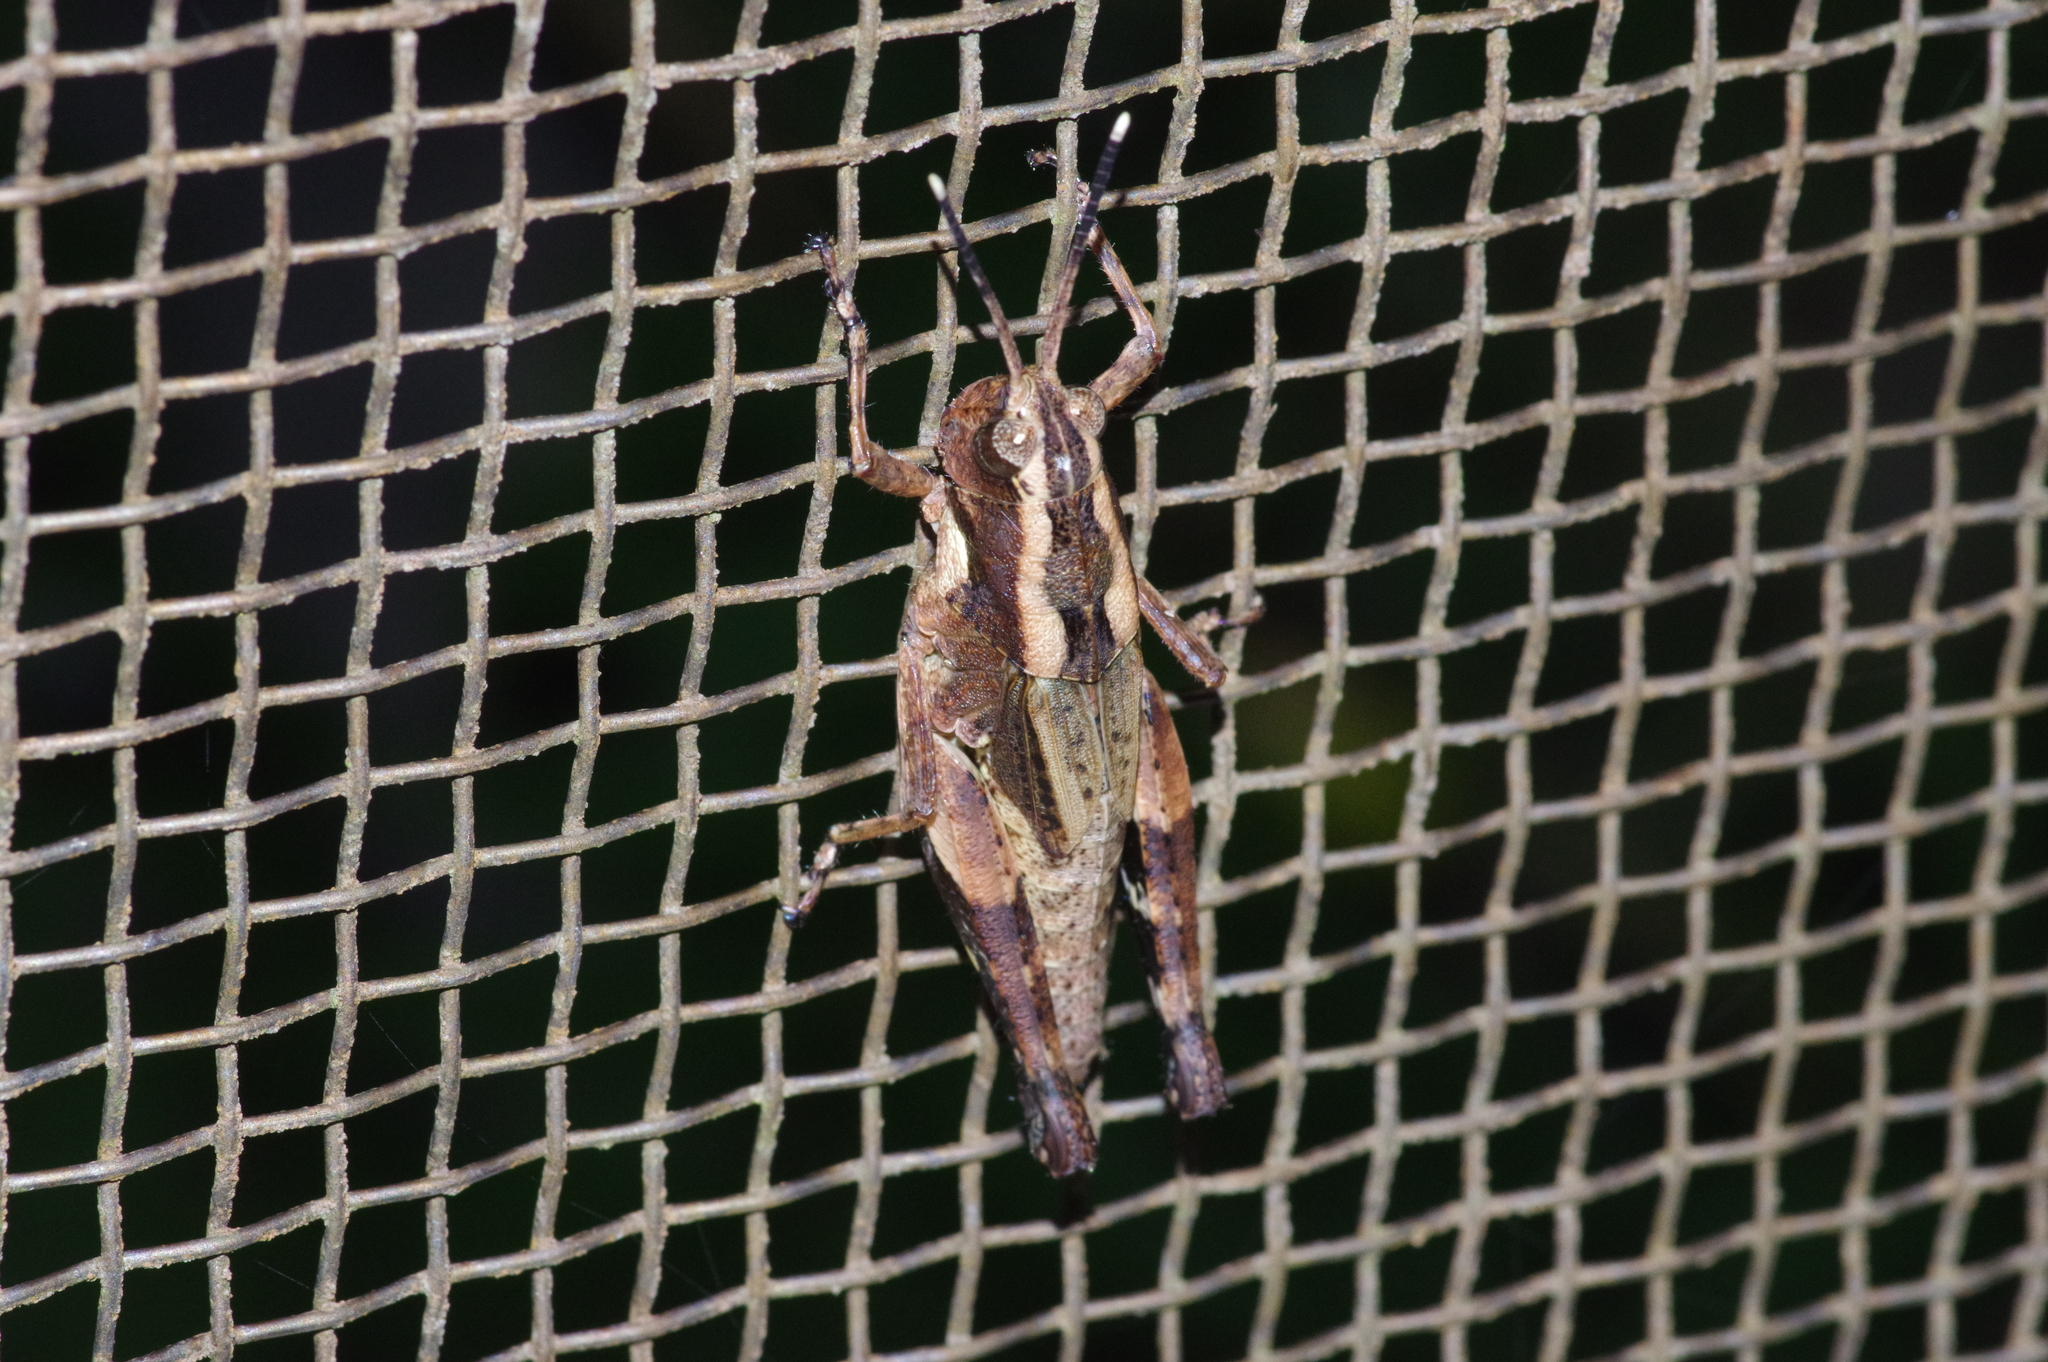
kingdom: Animalia
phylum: Arthropoda
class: Insecta
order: Orthoptera
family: Acrididae
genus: Traulia
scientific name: Traulia ornata
